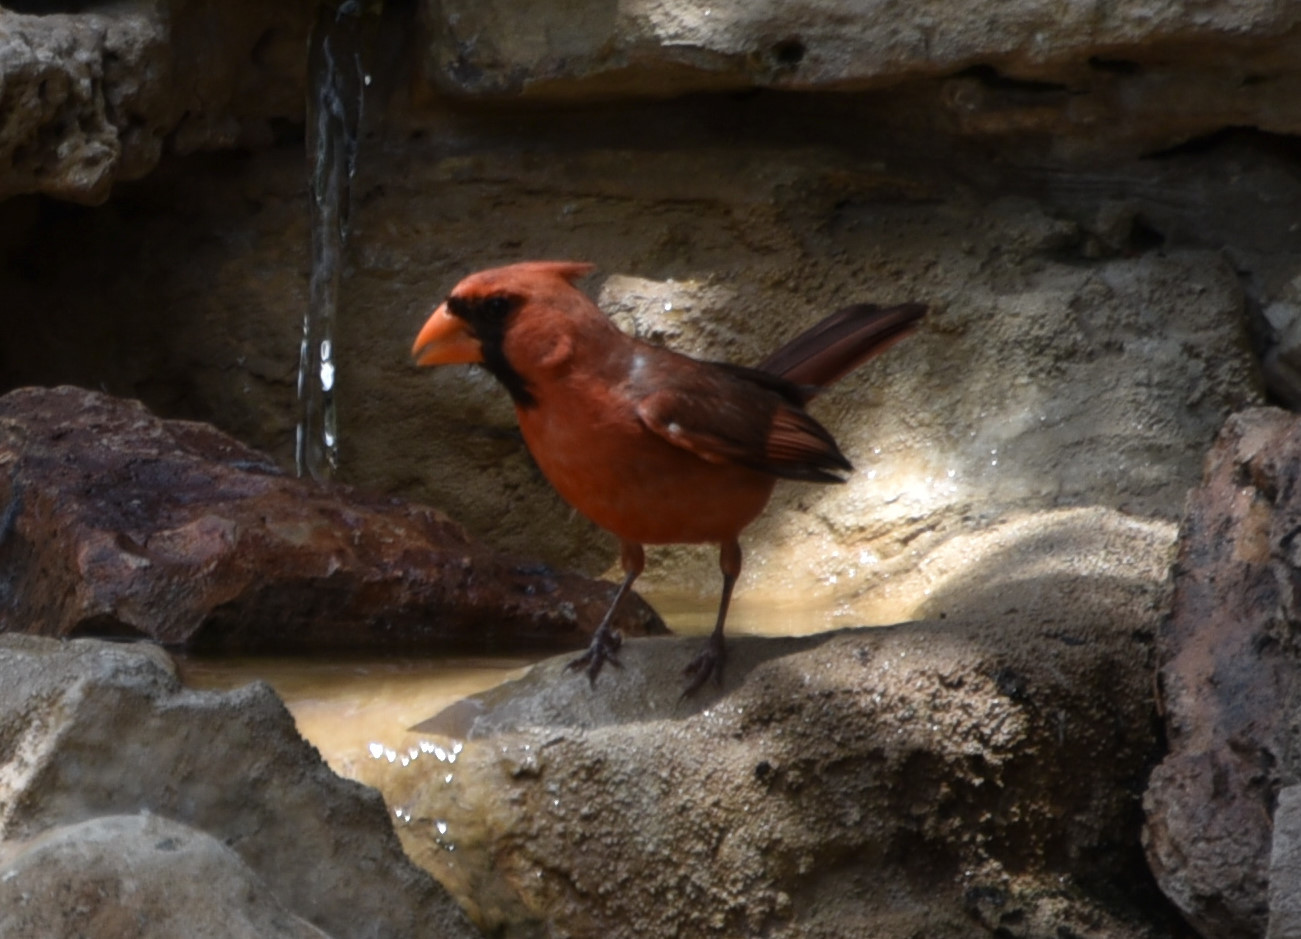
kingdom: Animalia
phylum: Chordata
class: Aves
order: Passeriformes
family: Cardinalidae
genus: Cardinalis
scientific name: Cardinalis cardinalis
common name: Northern cardinal
